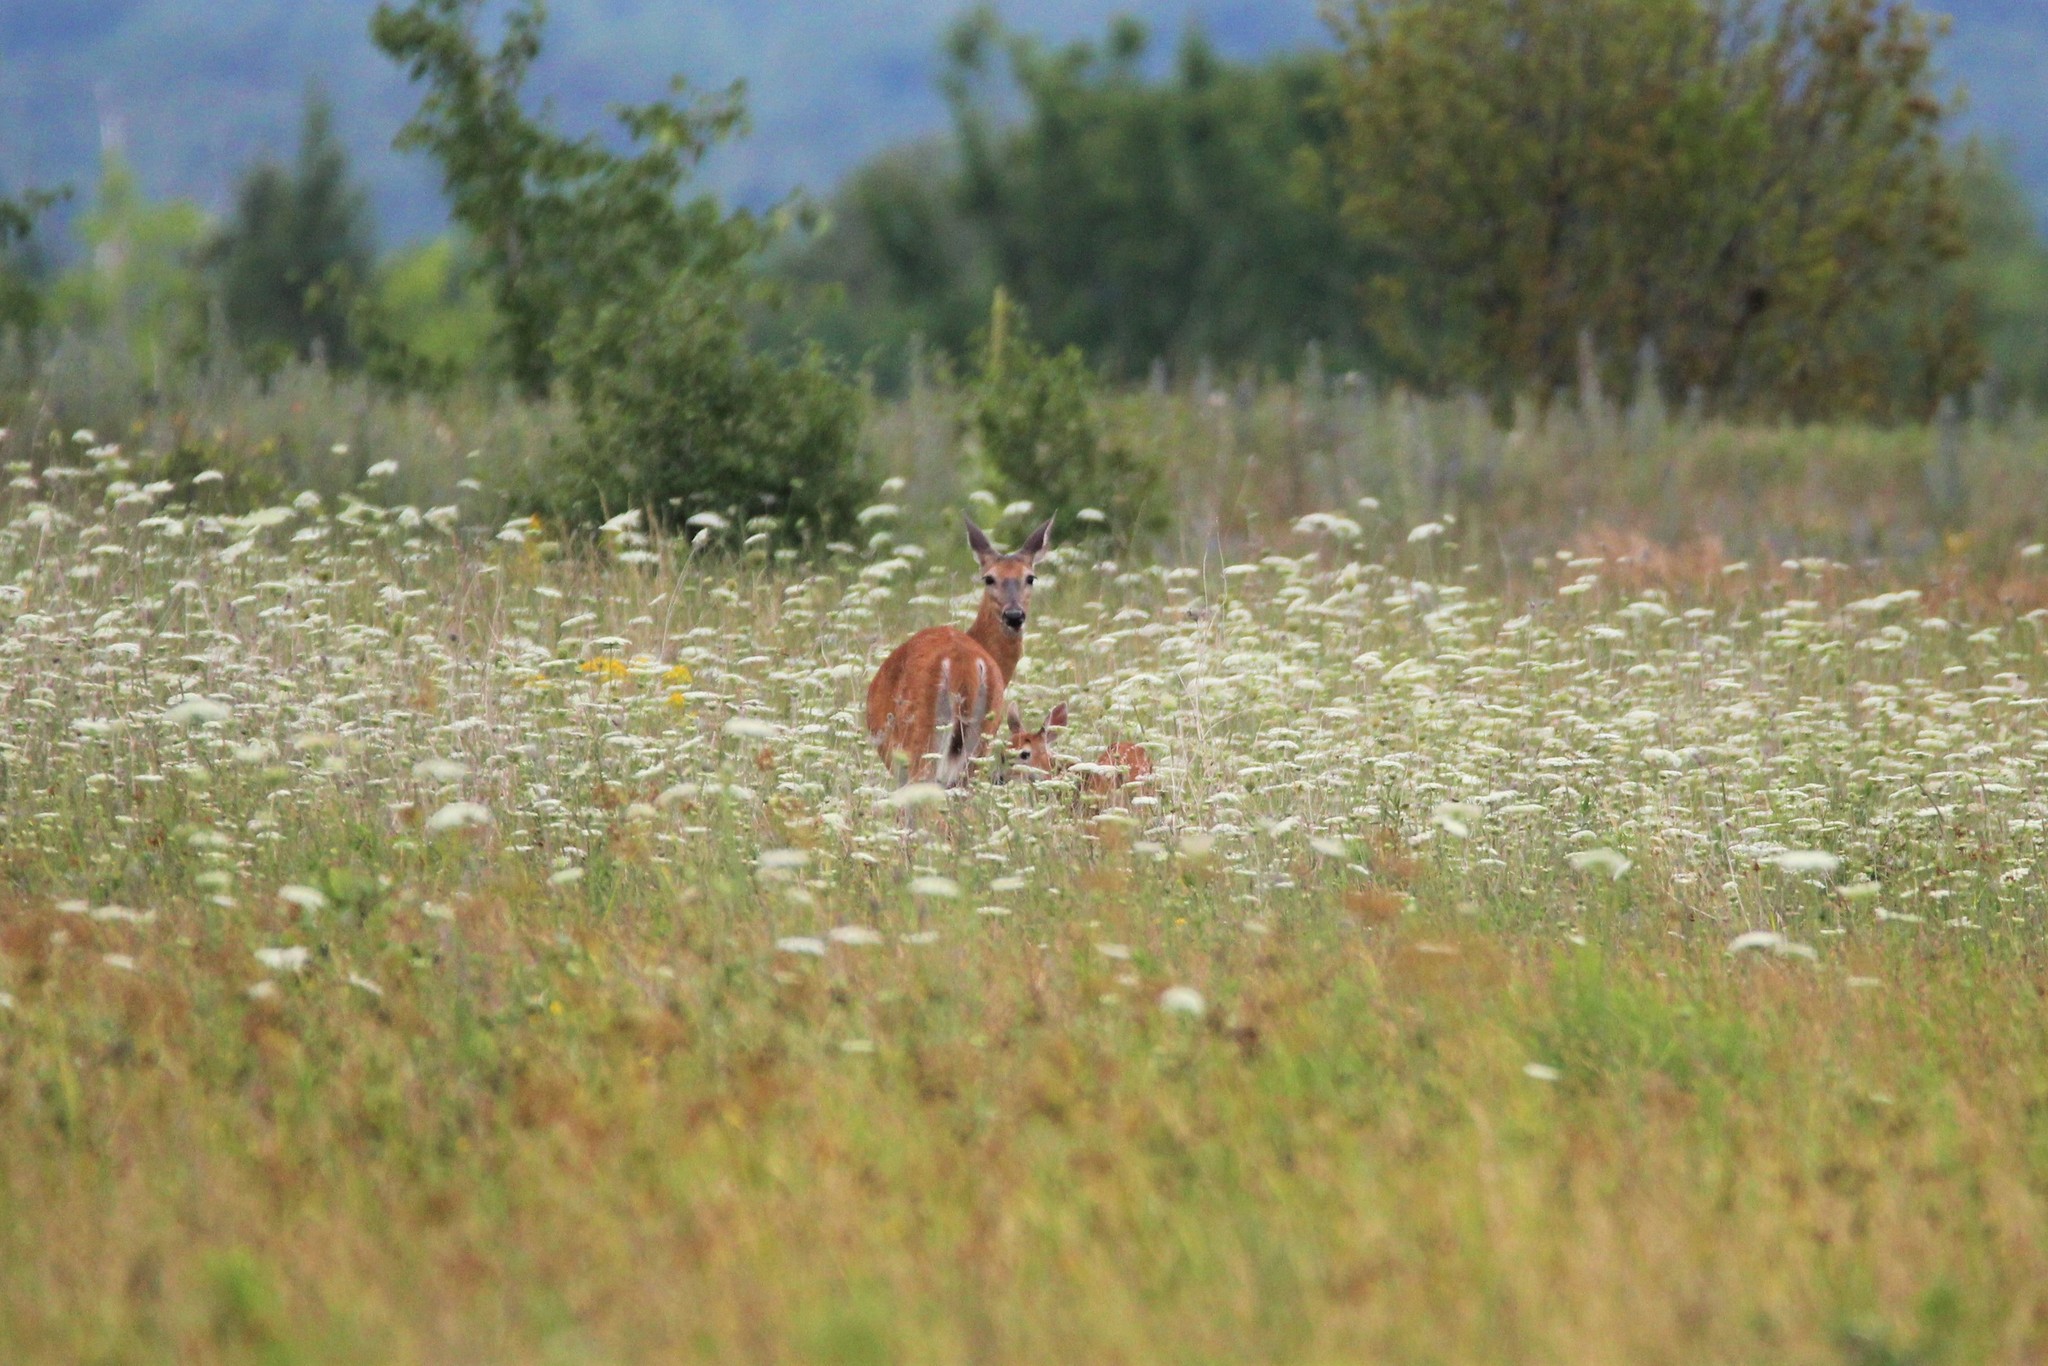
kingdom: Animalia
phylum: Chordata
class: Mammalia
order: Artiodactyla
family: Cervidae
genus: Odocoileus
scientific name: Odocoileus virginianus
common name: White-tailed deer
